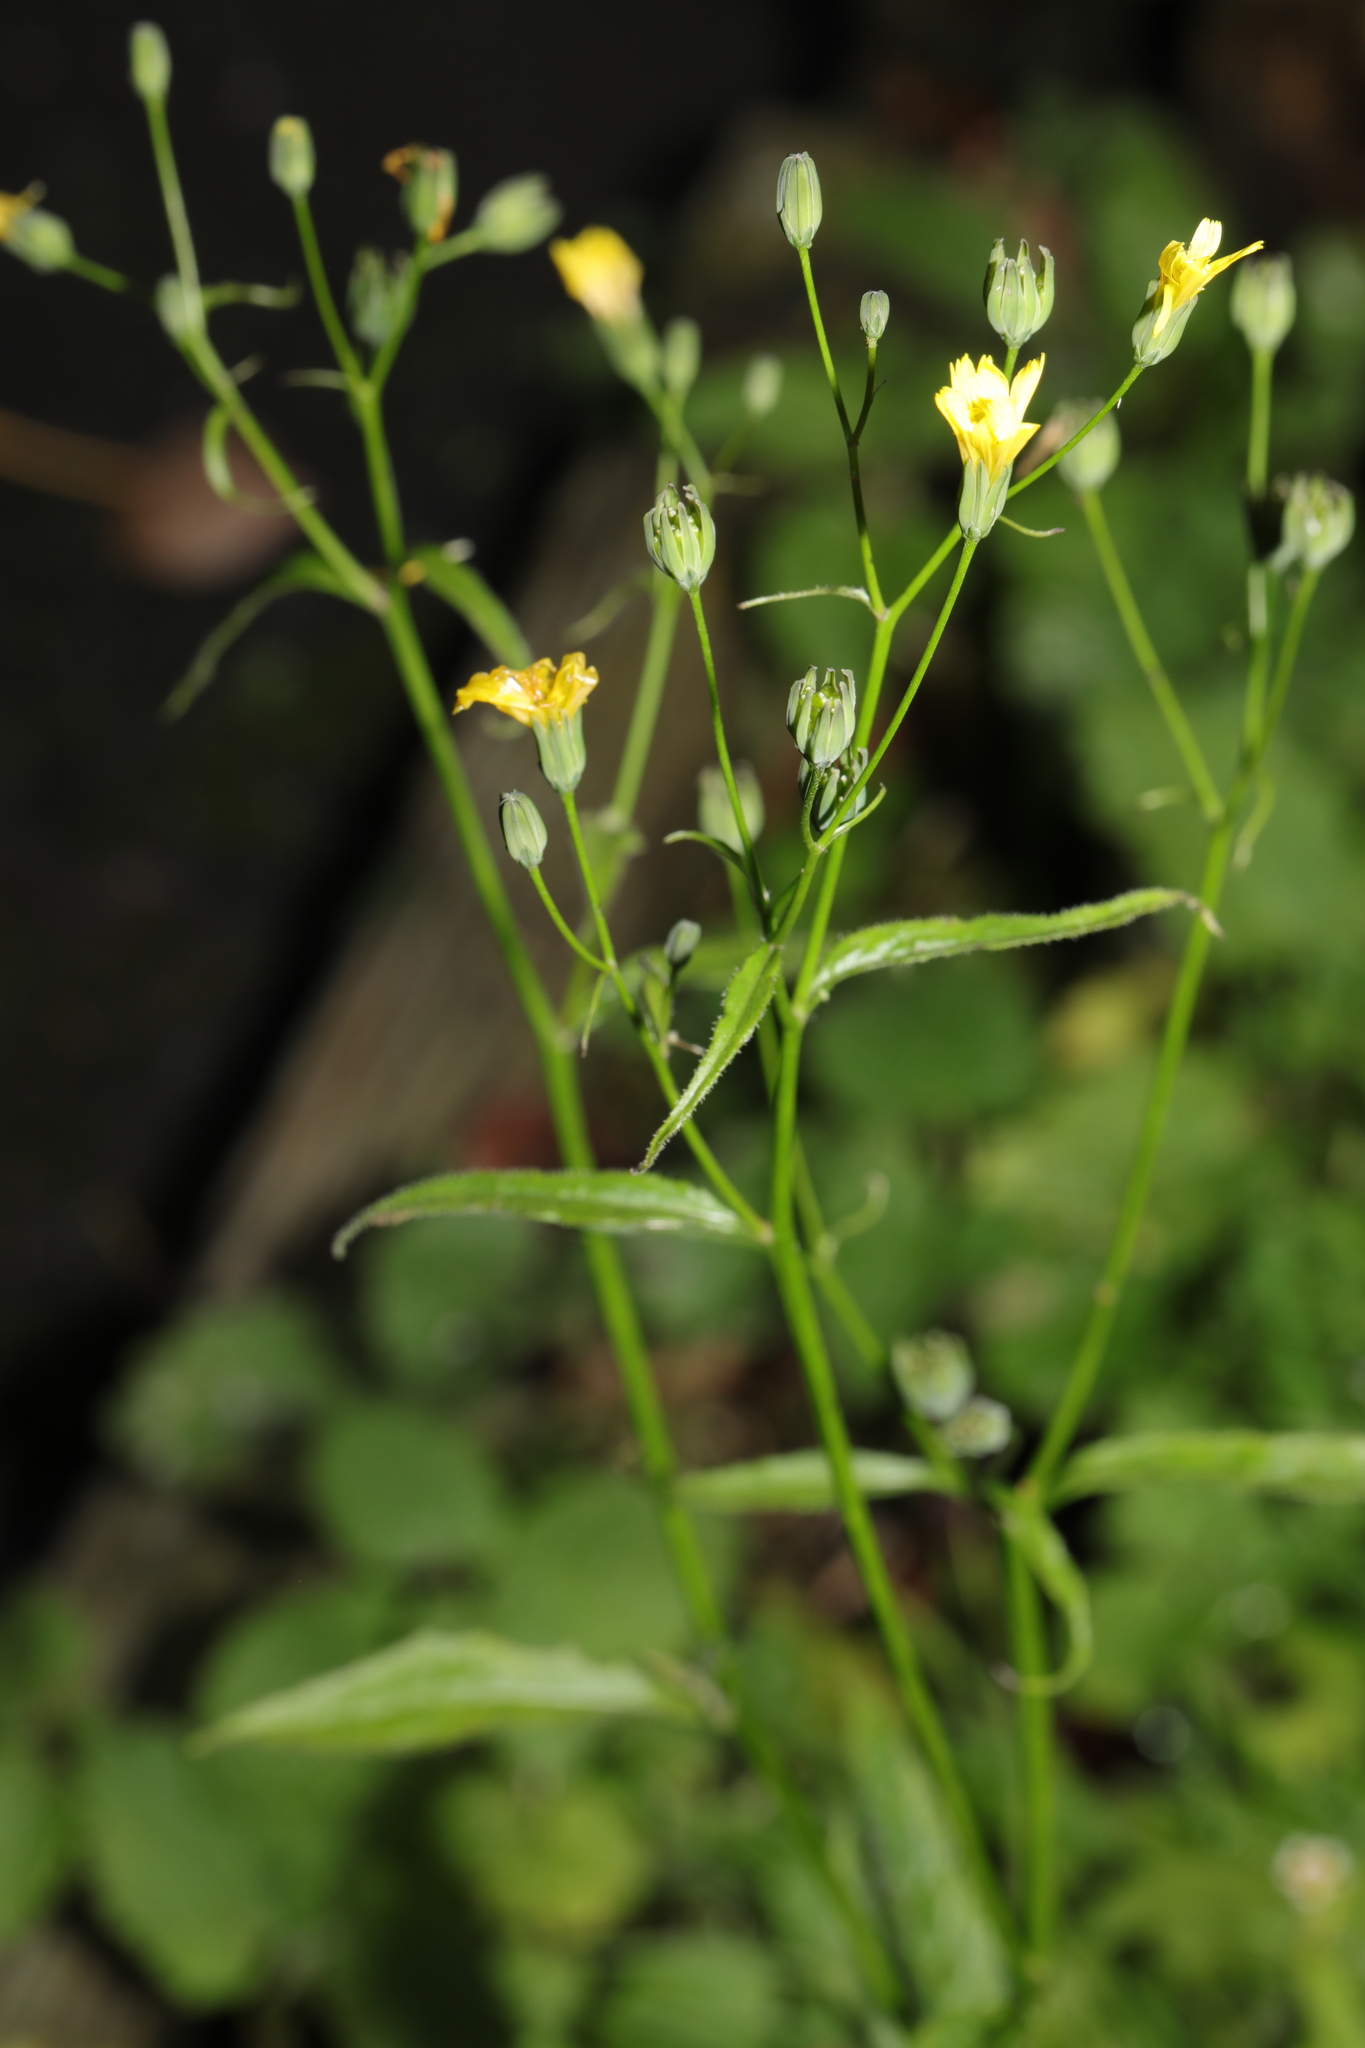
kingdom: Plantae
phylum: Tracheophyta
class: Magnoliopsida
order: Asterales
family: Asteraceae
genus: Lapsana
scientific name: Lapsana communis
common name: Nipplewort
